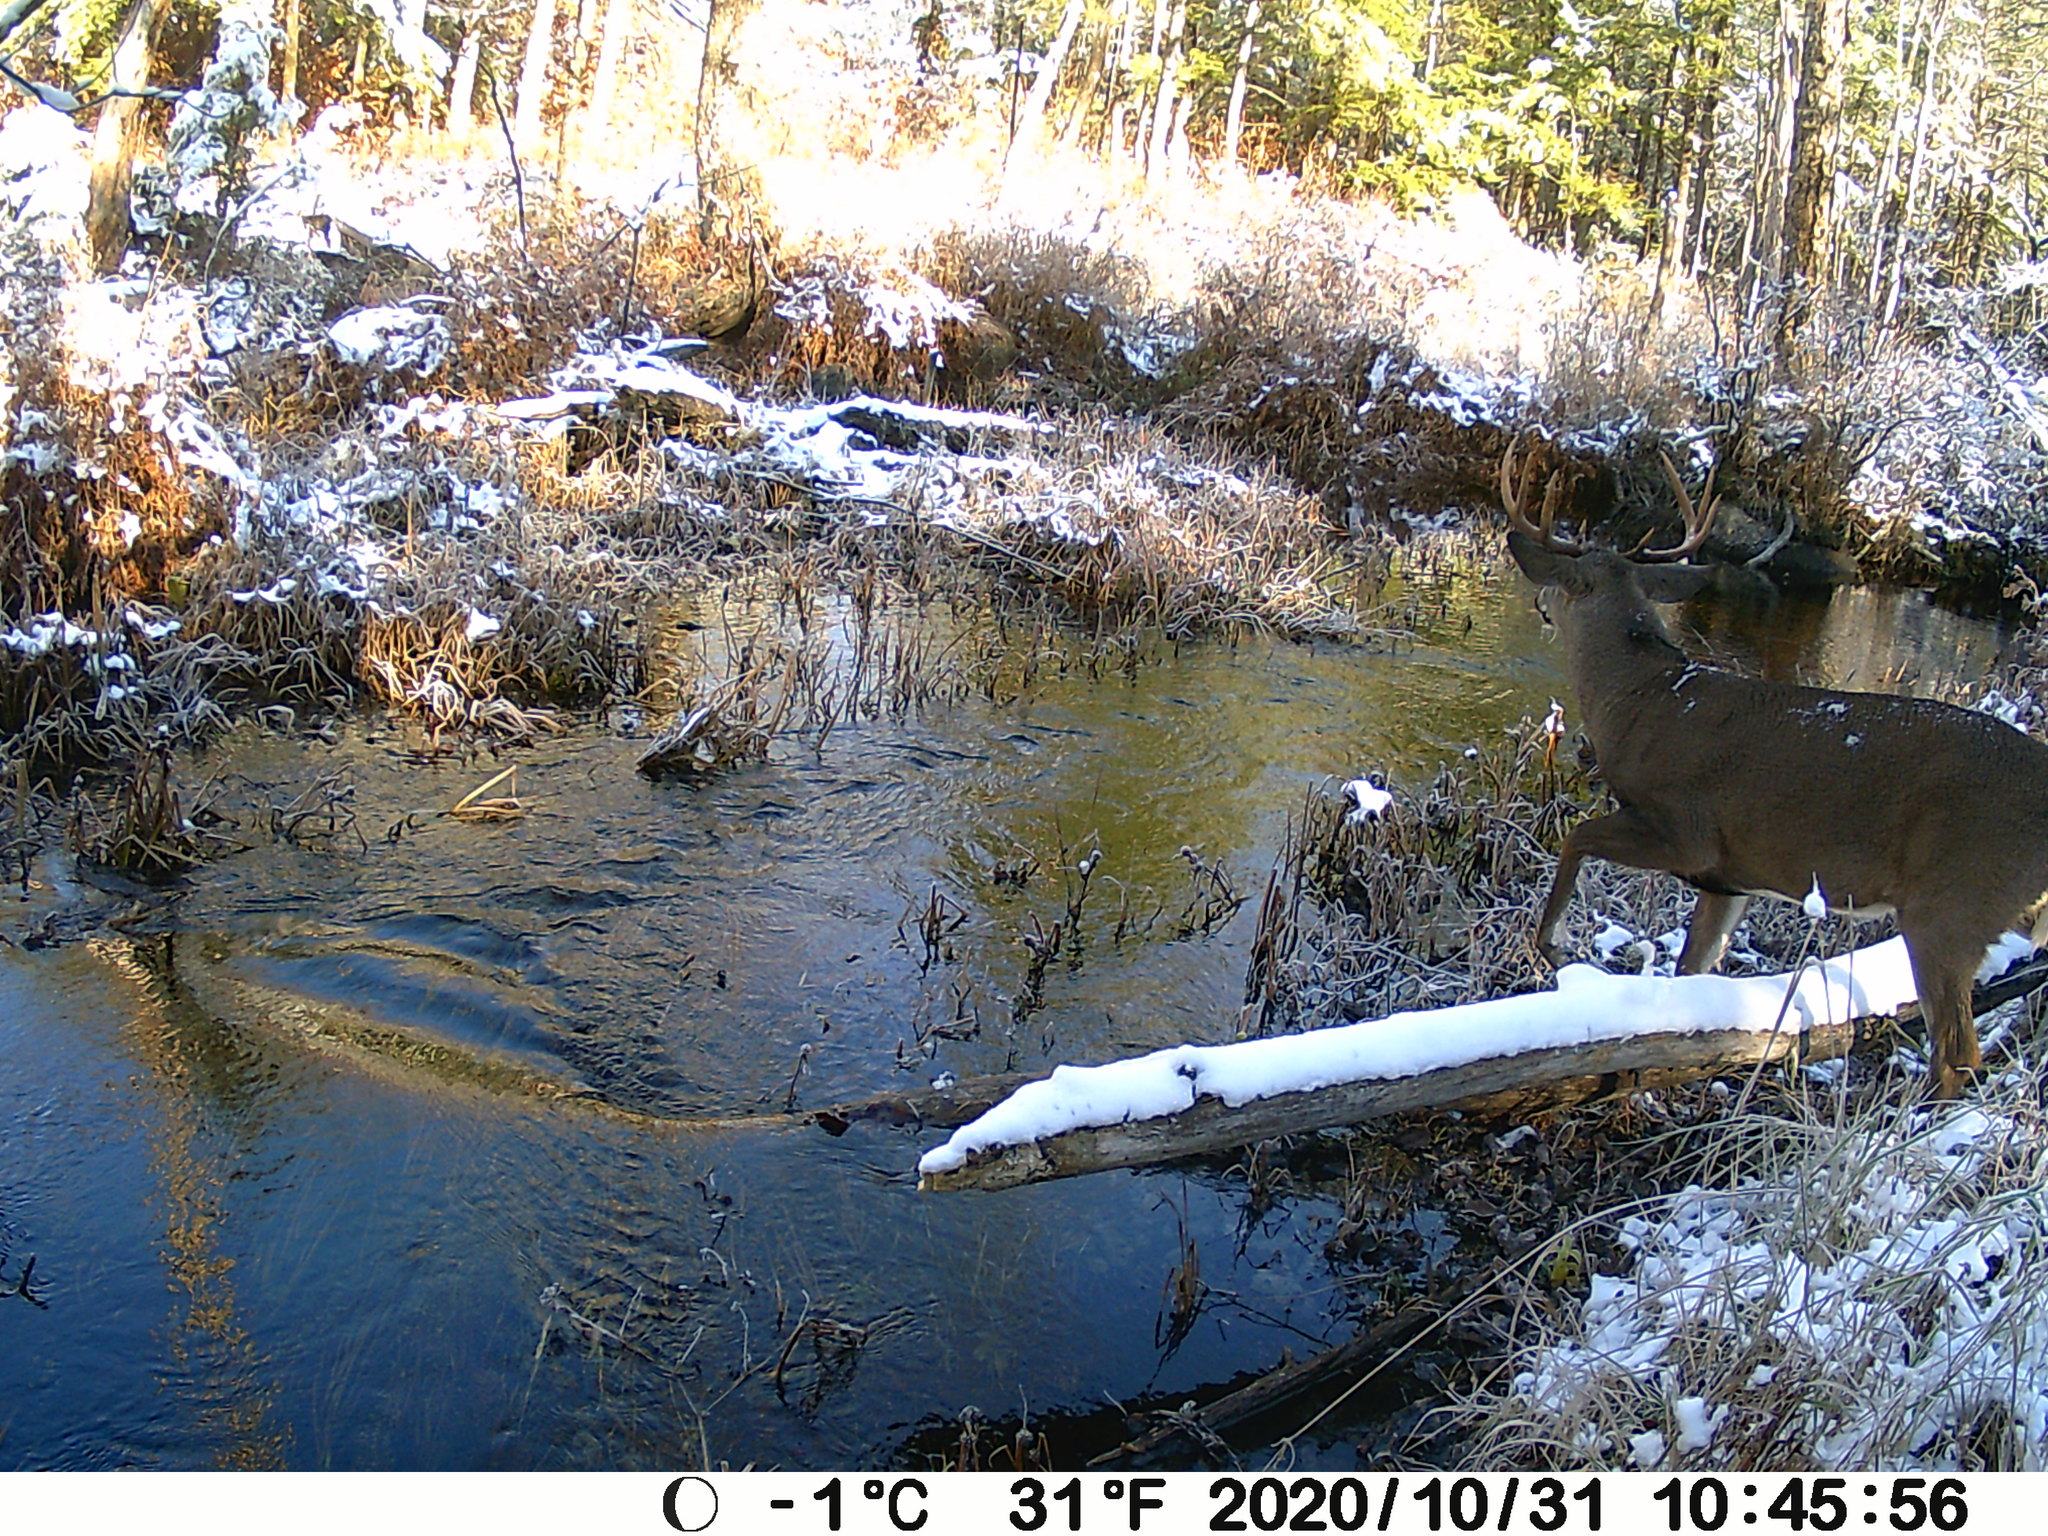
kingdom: Animalia
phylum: Chordata
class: Mammalia
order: Artiodactyla
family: Cervidae
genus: Odocoileus
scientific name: Odocoileus virginianus
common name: White-tailed deer
